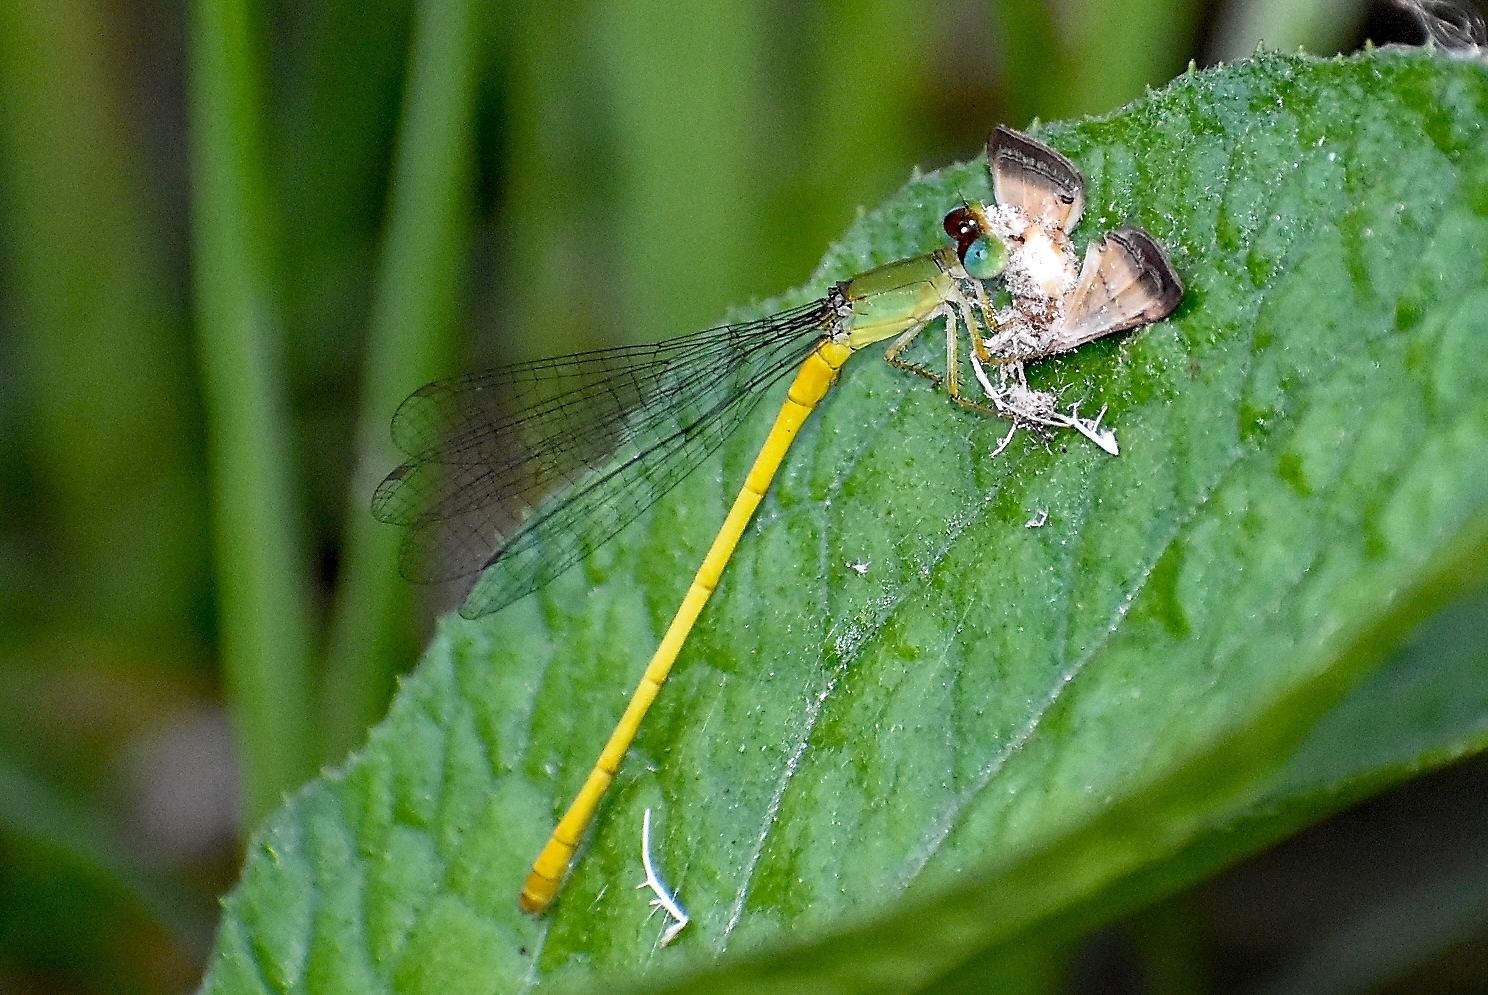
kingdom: Animalia
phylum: Arthropoda
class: Insecta
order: Odonata
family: Coenagrionidae
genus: Ceriagrion
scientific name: Ceriagrion coromandelianum
